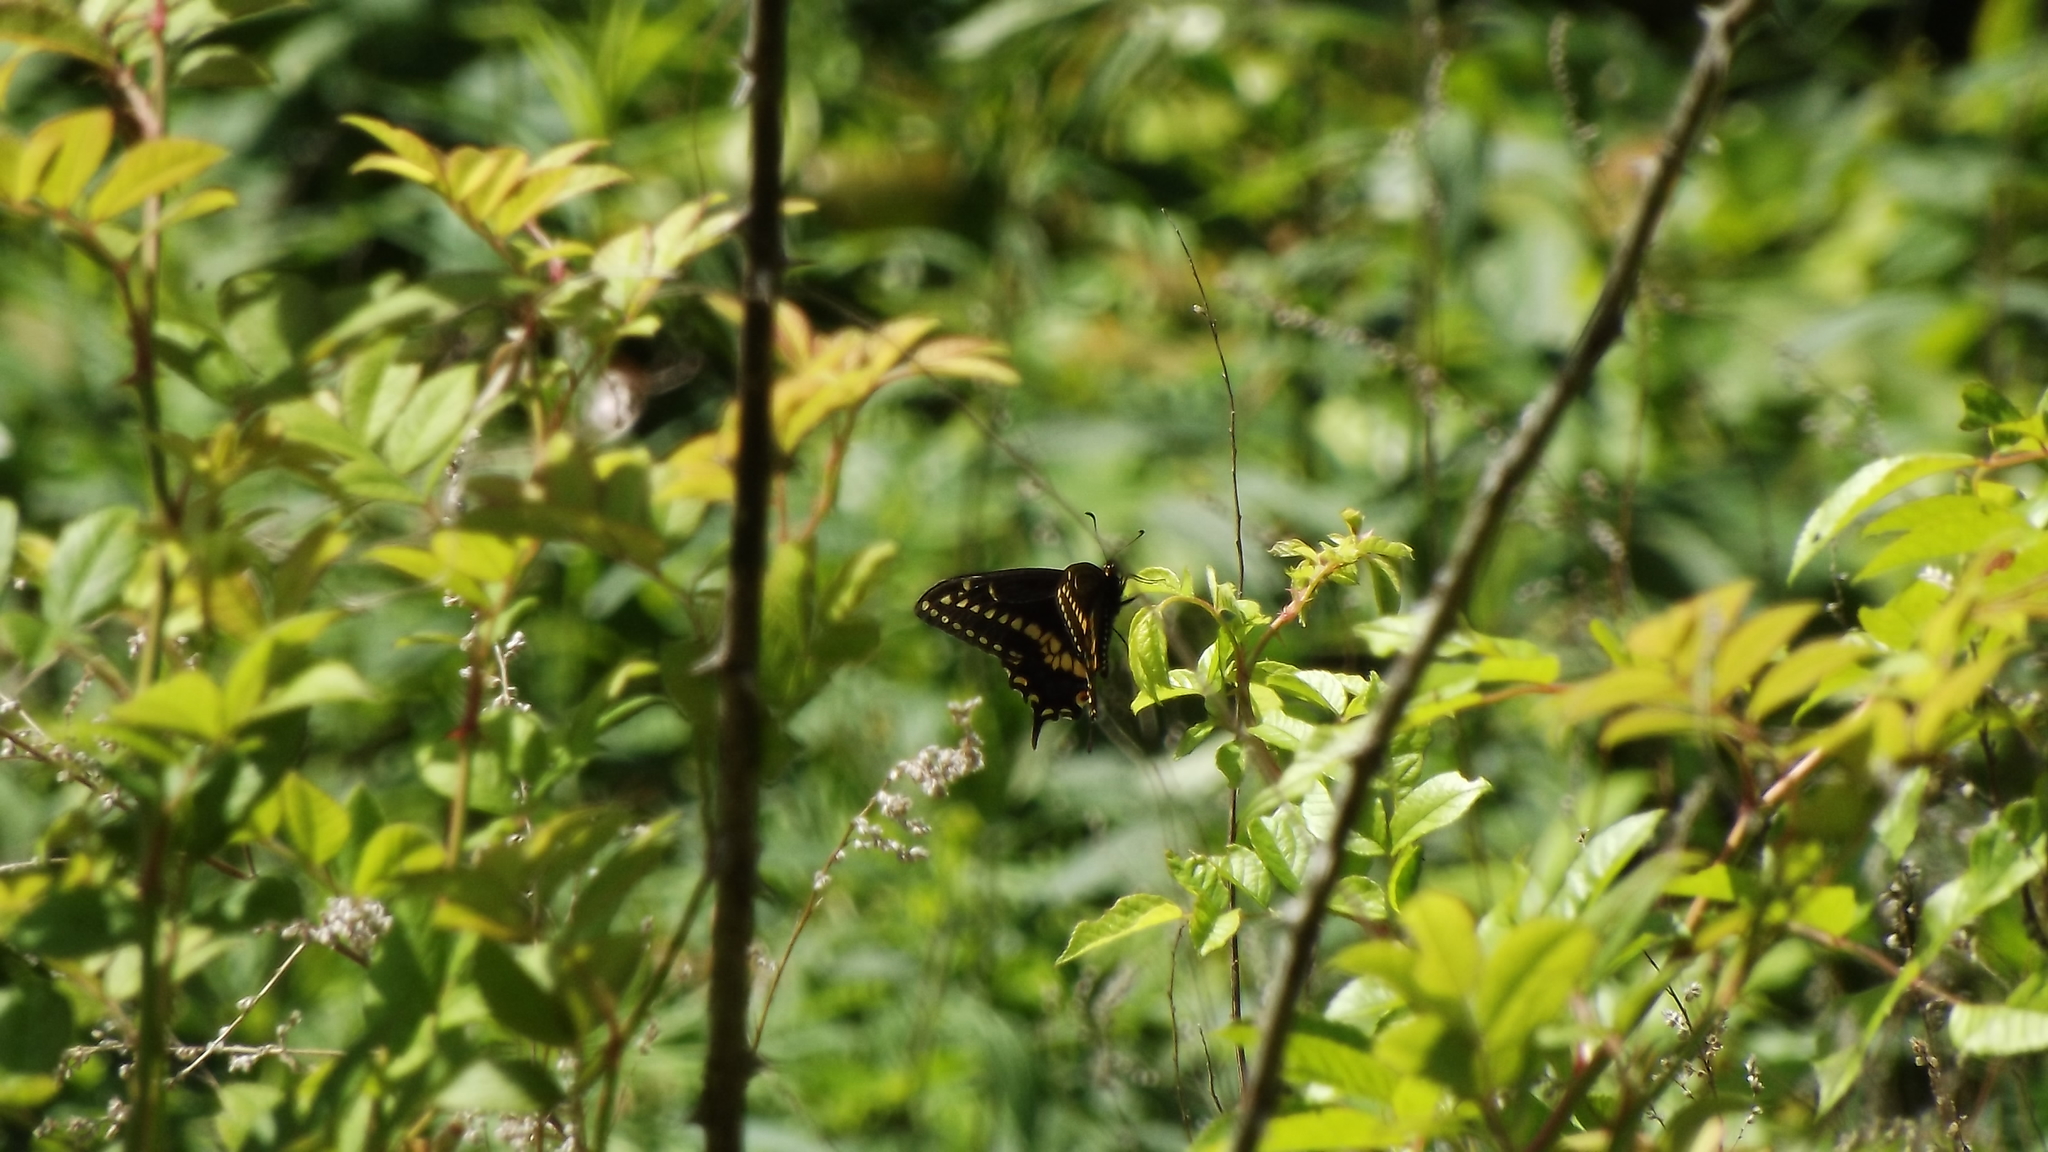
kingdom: Animalia
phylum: Arthropoda
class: Insecta
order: Lepidoptera
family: Papilionidae
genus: Papilio
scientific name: Papilio polyxenes
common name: Black swallowtail
